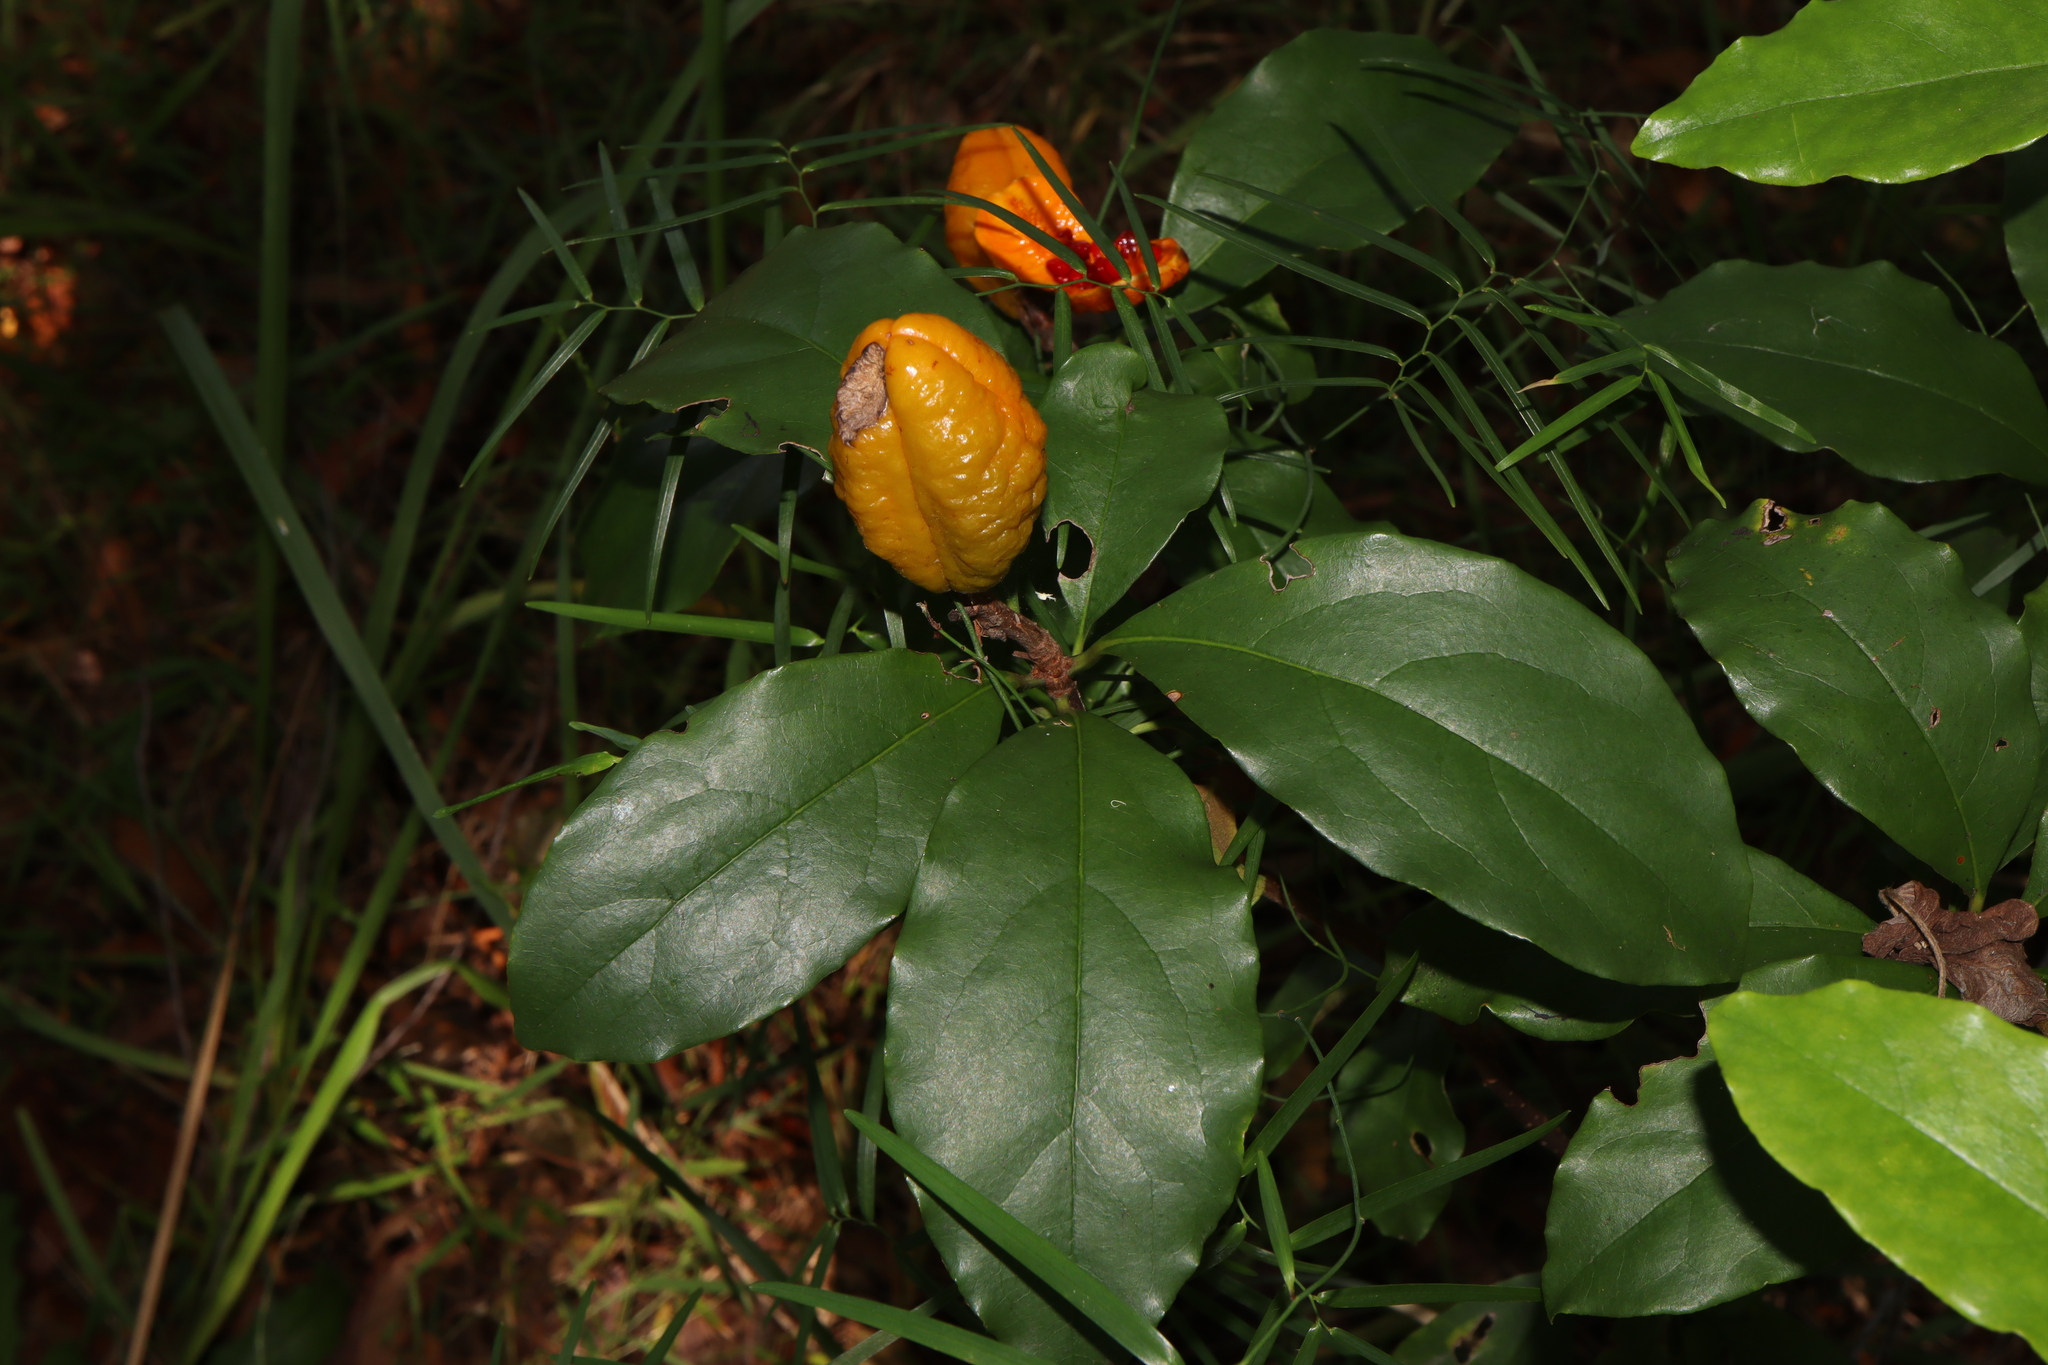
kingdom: Plantae
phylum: Tracheophyta
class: Magnoliopsida
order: Apiales
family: Pittosporaceae
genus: Pittosporum
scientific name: Pittosporum revolutum
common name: Brisbane-laurel
